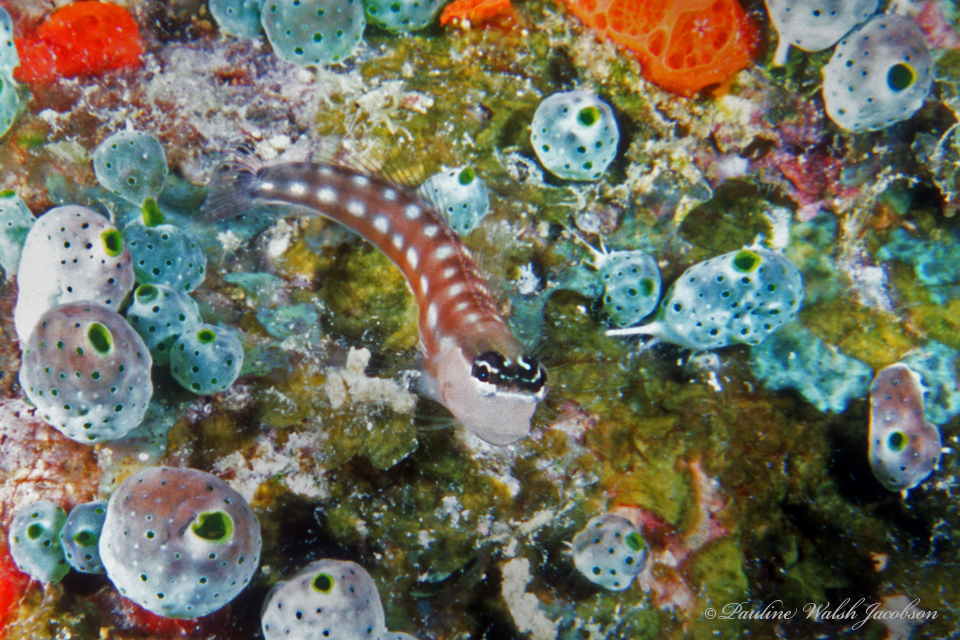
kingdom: Animalia
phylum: Chordata
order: Perciformes
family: Blenniidae
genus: Ecsenius
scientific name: Ecsenius australianus
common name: Australian blenny
